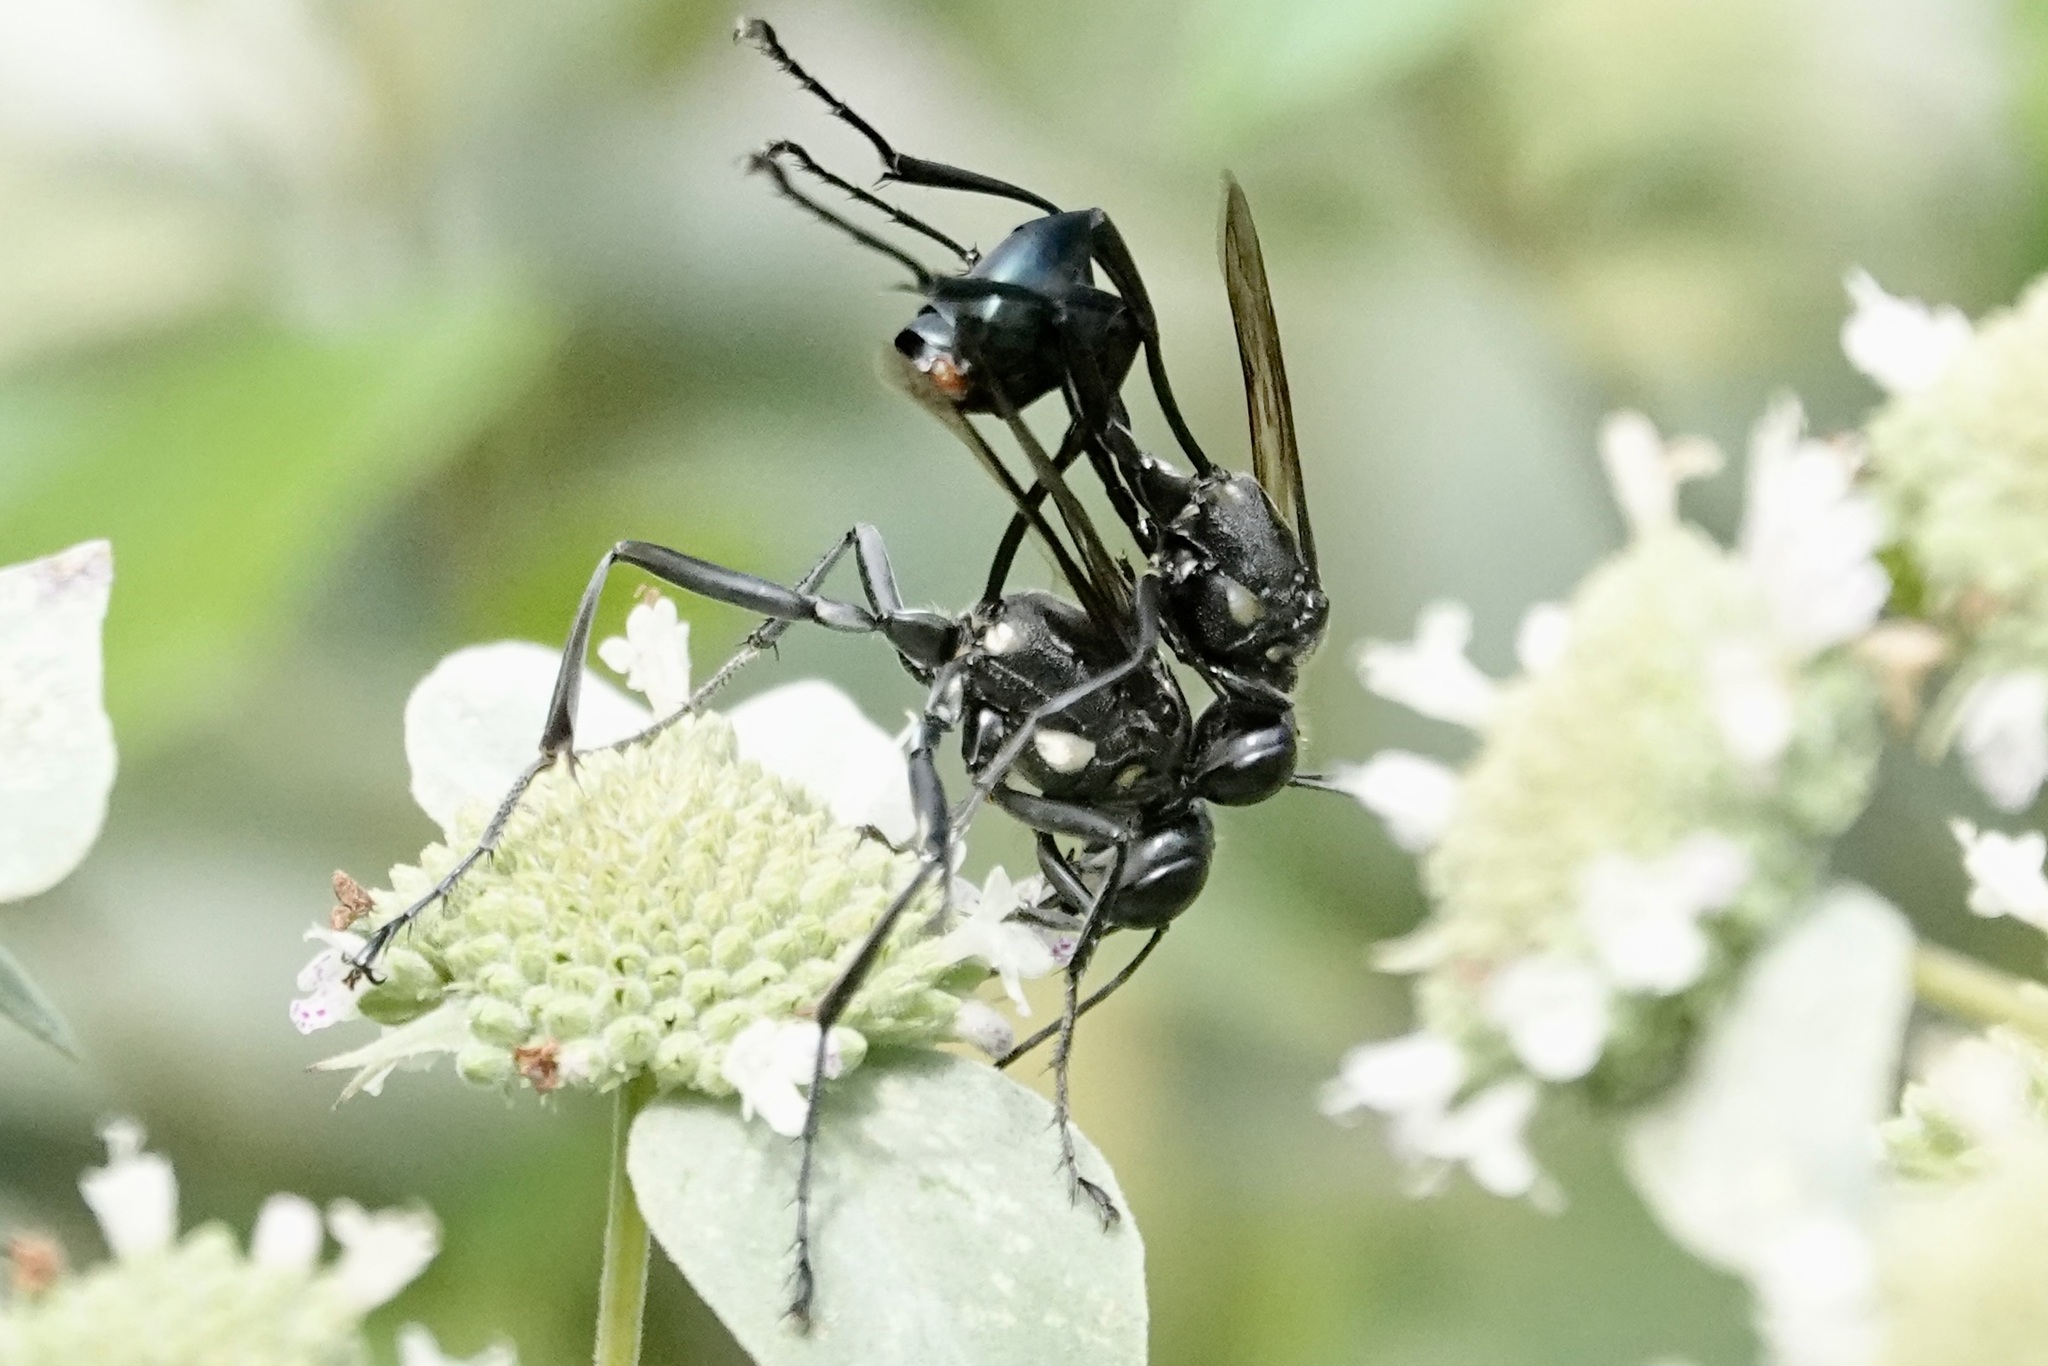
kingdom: Animalia
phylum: Arthropoda
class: Insecta
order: Hymenoptera
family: Sphecidae
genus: Eremnophila
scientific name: Eremnophila aureonotata
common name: Gold-marked thread-waisted wasp
